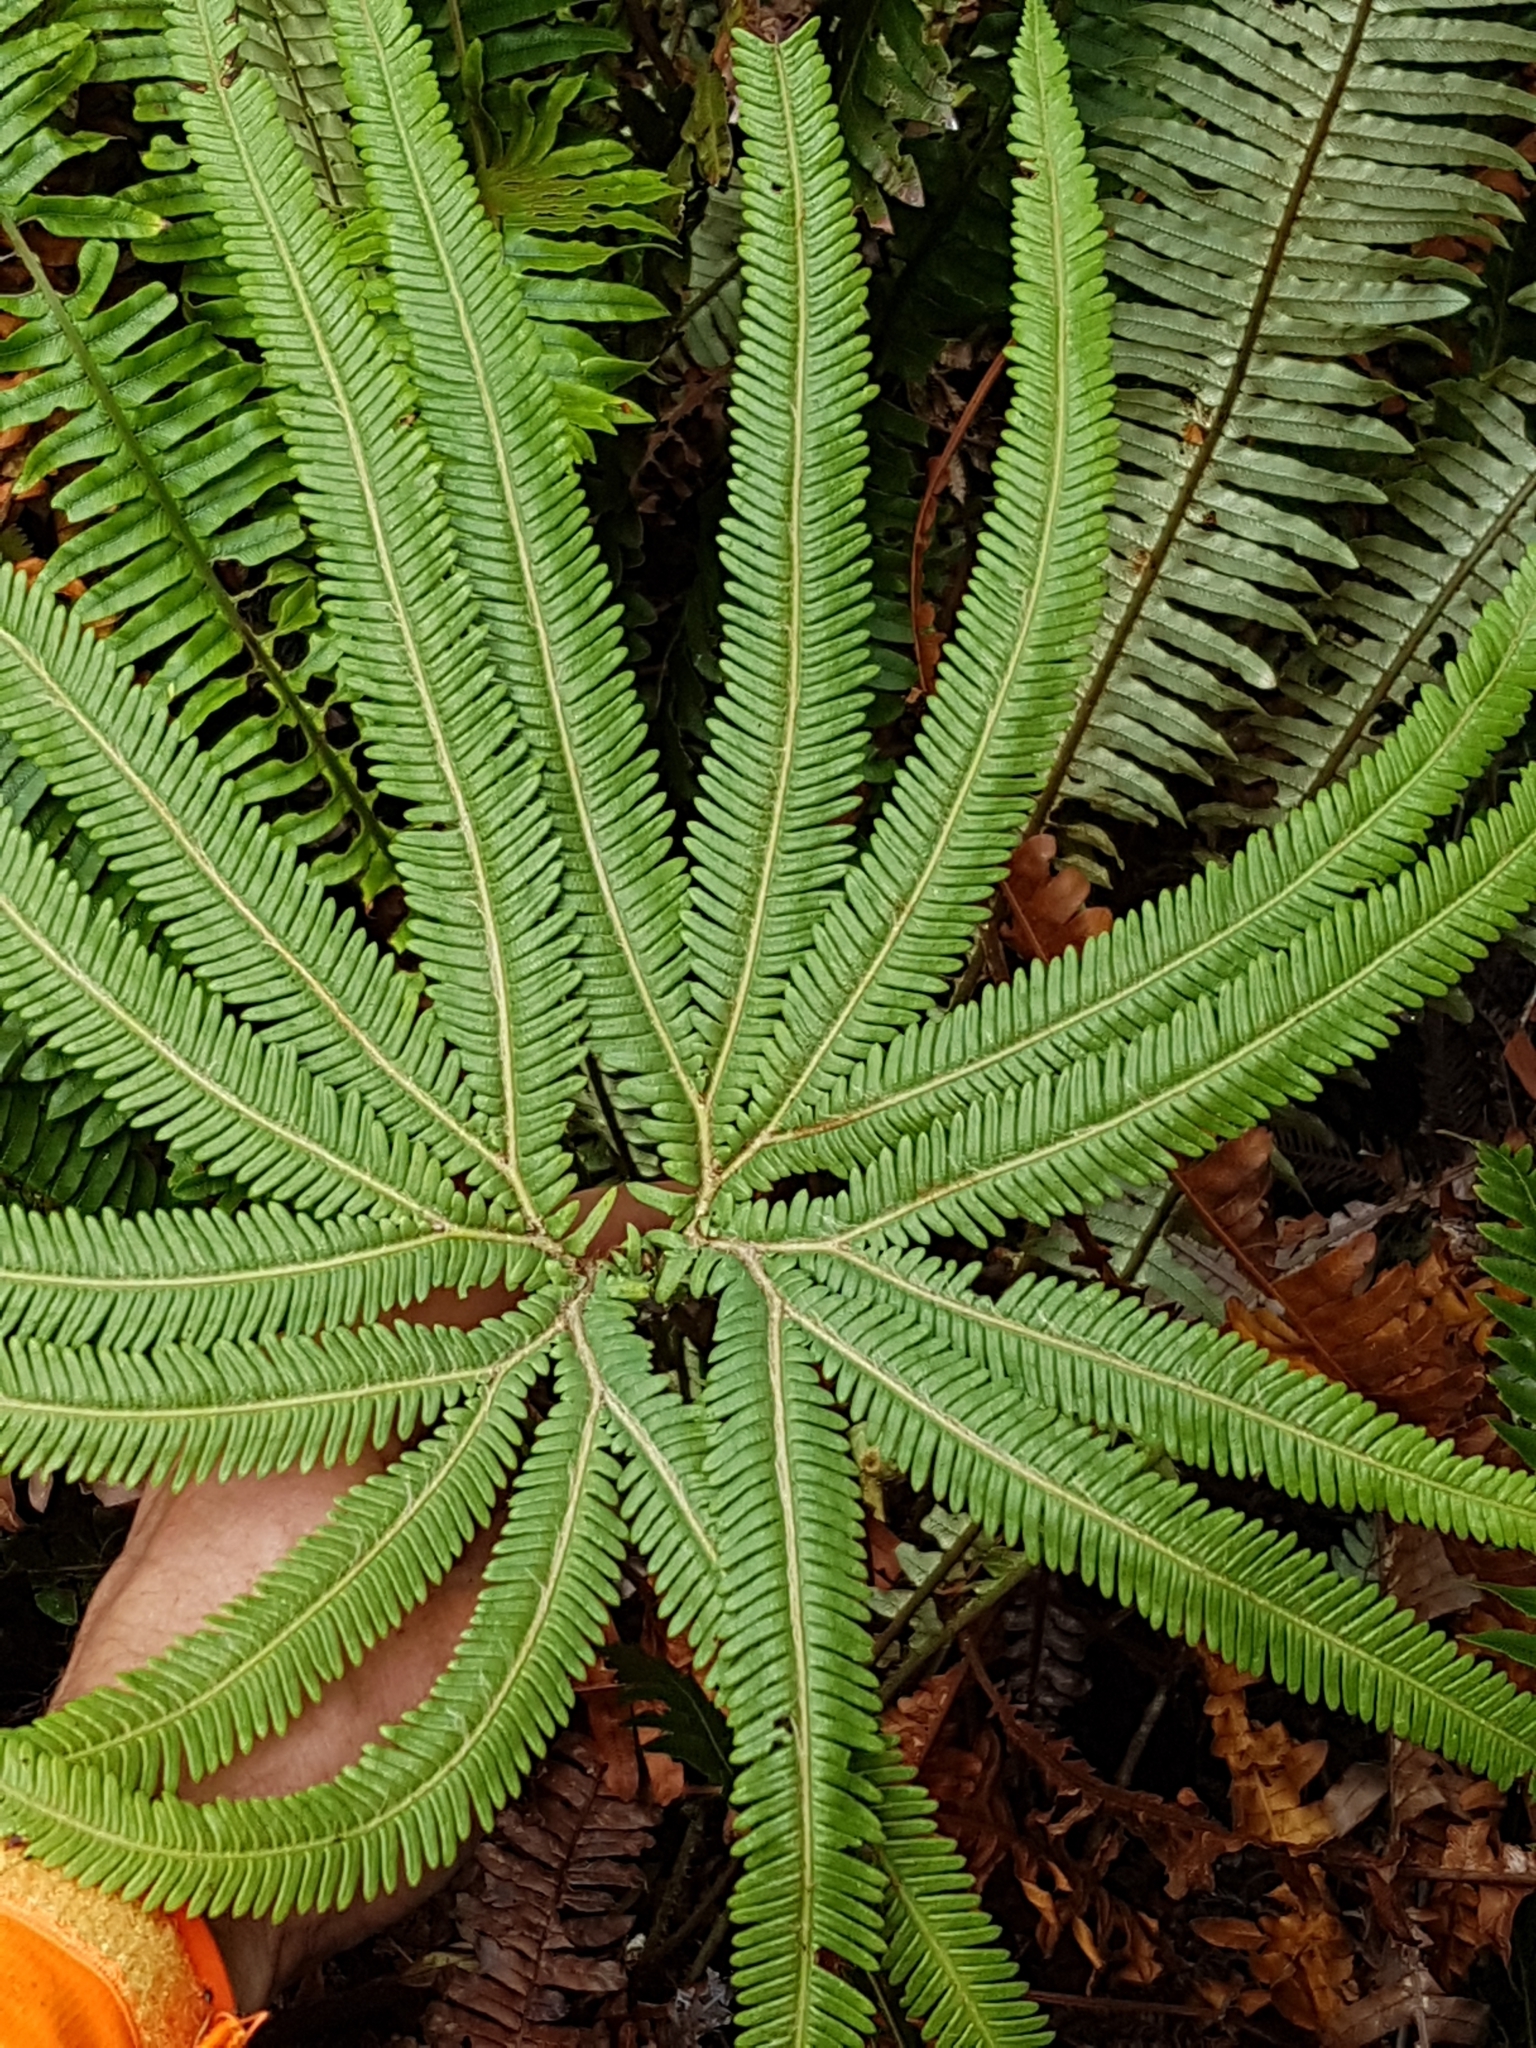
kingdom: Plantae
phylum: Tracheophyta
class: Polypodiopsida
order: Gleicheniales
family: Gleicheniaceae
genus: Sticherus
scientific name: Sticherus cunninghamii
